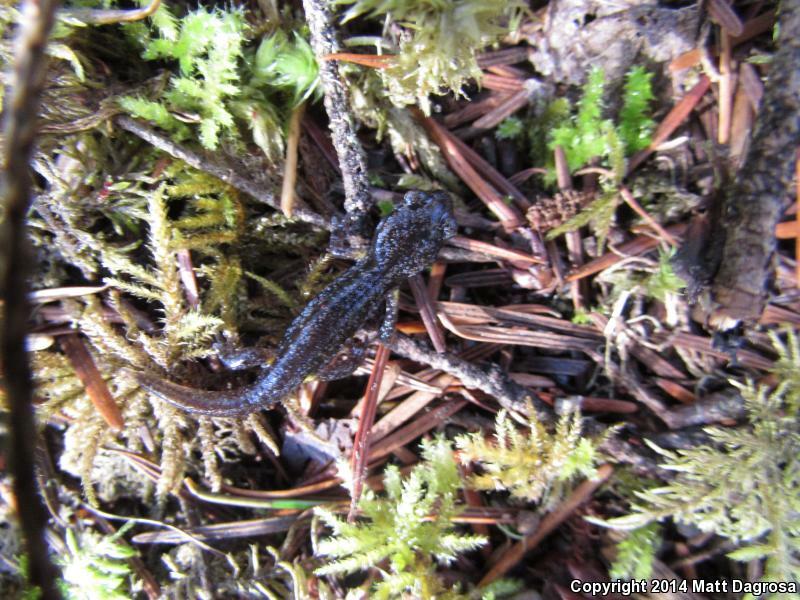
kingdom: Animalia
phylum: Chordata
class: Amphibia
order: Caudata
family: Plethodontidae
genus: Ensatina
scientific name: Ensatina eschscholtzii
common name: Ensatina
